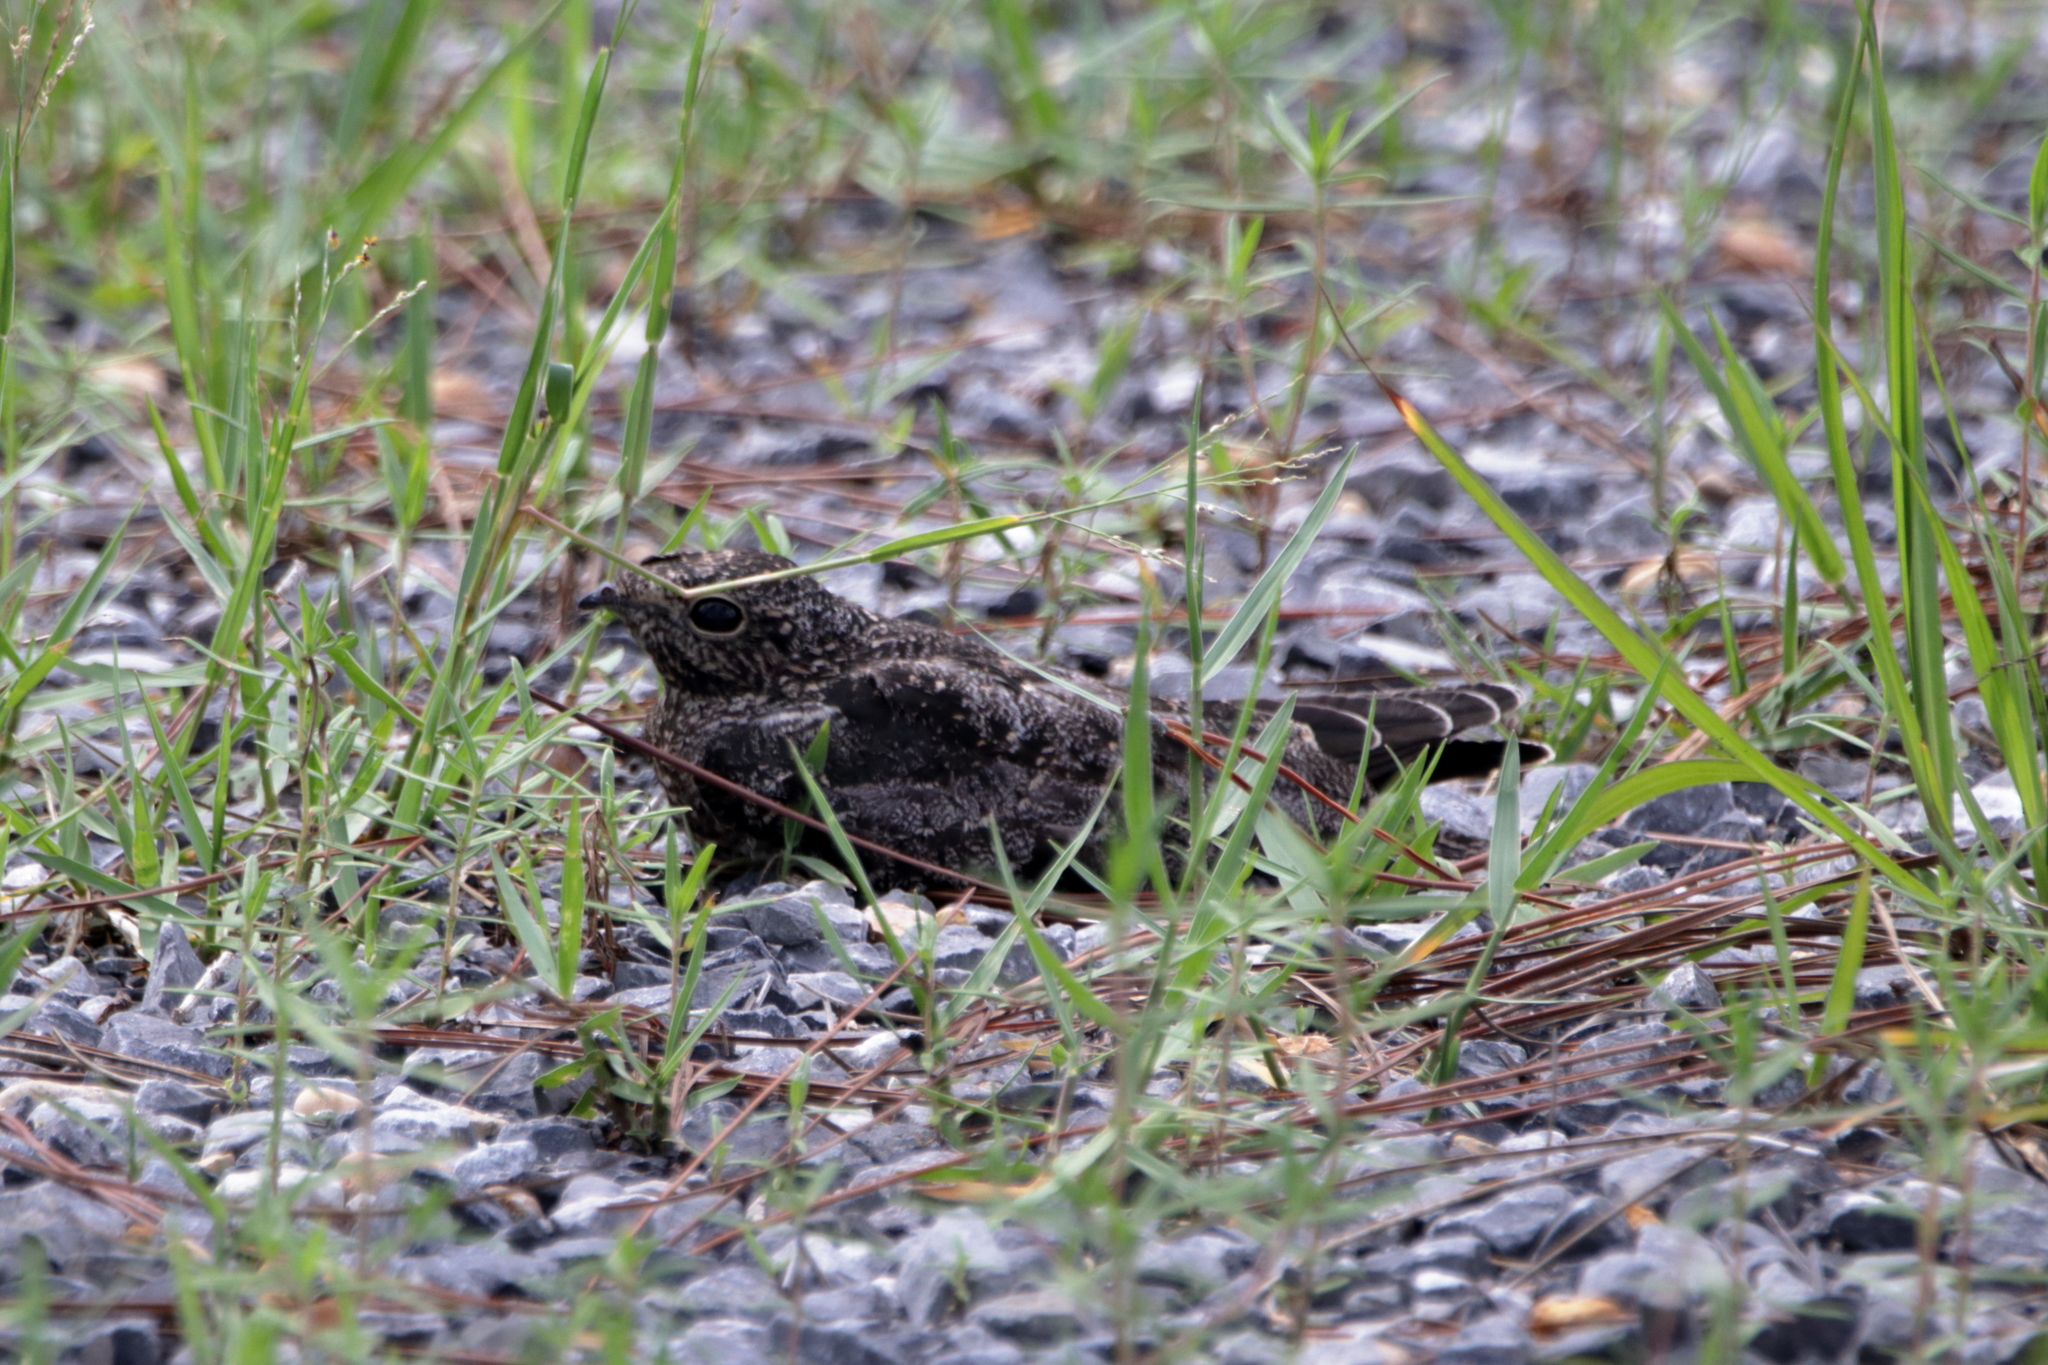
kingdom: Animalia
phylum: Chordata
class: Aves
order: Caprimulgiformes
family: Caprimulgidae
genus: Chordeiles
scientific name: Chordeiles minor
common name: Common nighthawk
